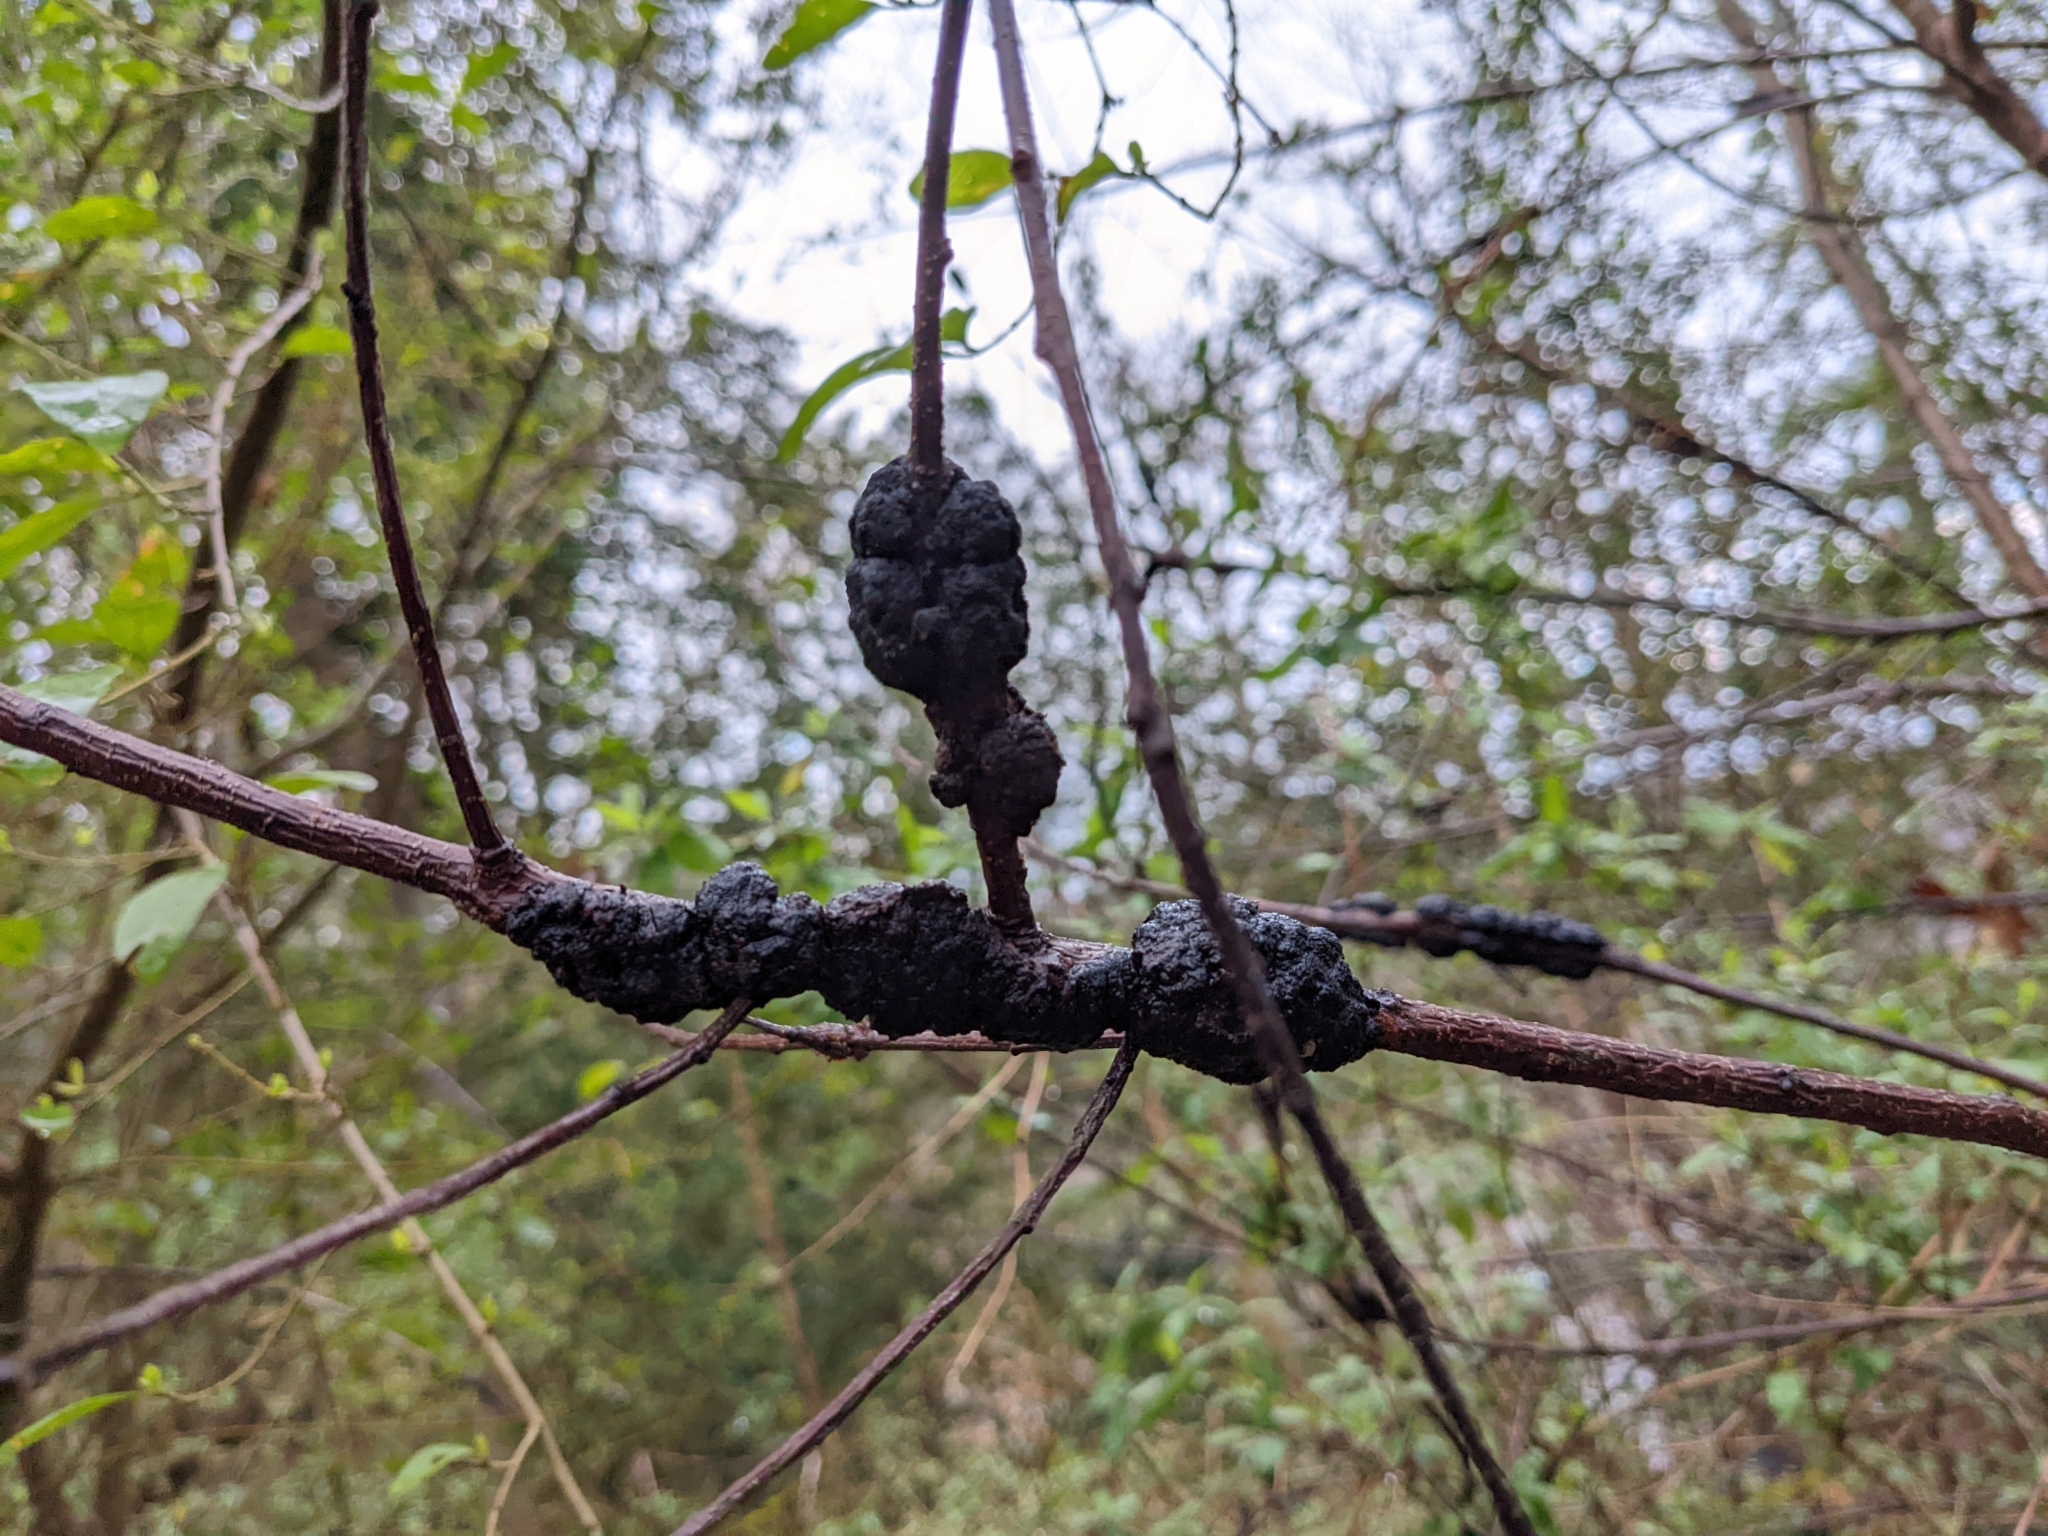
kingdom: Fungi
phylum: Ascomycota
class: Dothideomycetes
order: Venturiales
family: Venturiaceae
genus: Apiosporina
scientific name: Apiosporina morbosa
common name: Black knot
